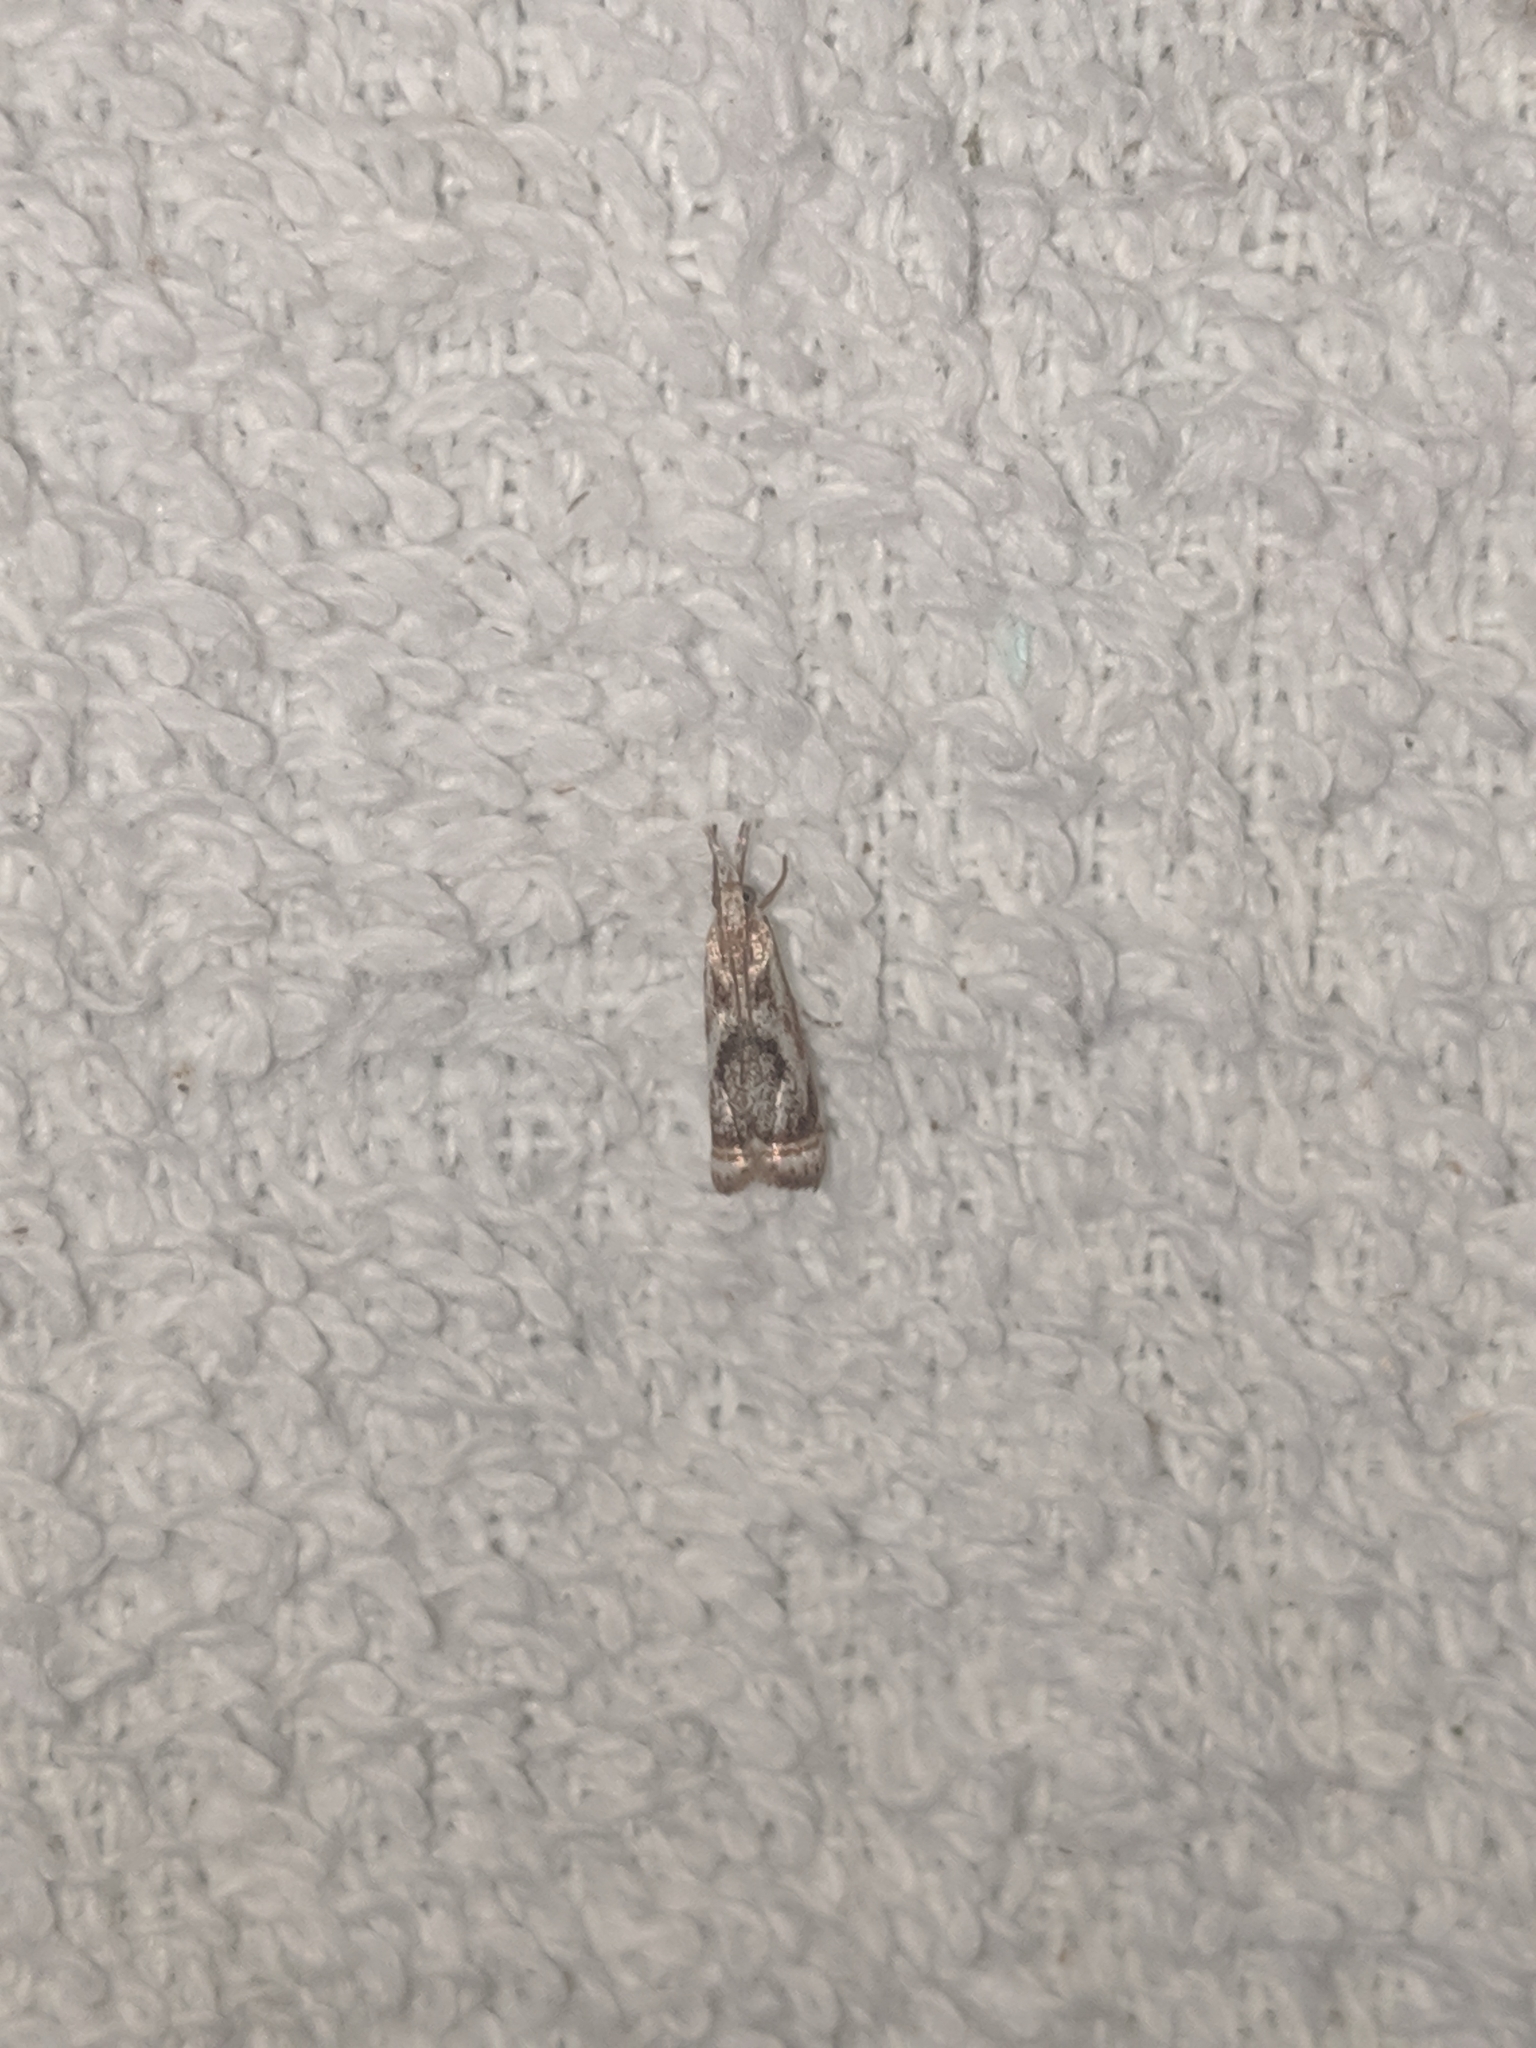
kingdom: Animalia
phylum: Arthropoda
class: Insecta
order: Lepidoptera
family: Crambidae
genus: Microcrambus
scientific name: Microcrambus elegans
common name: Elegant grass-veneer
